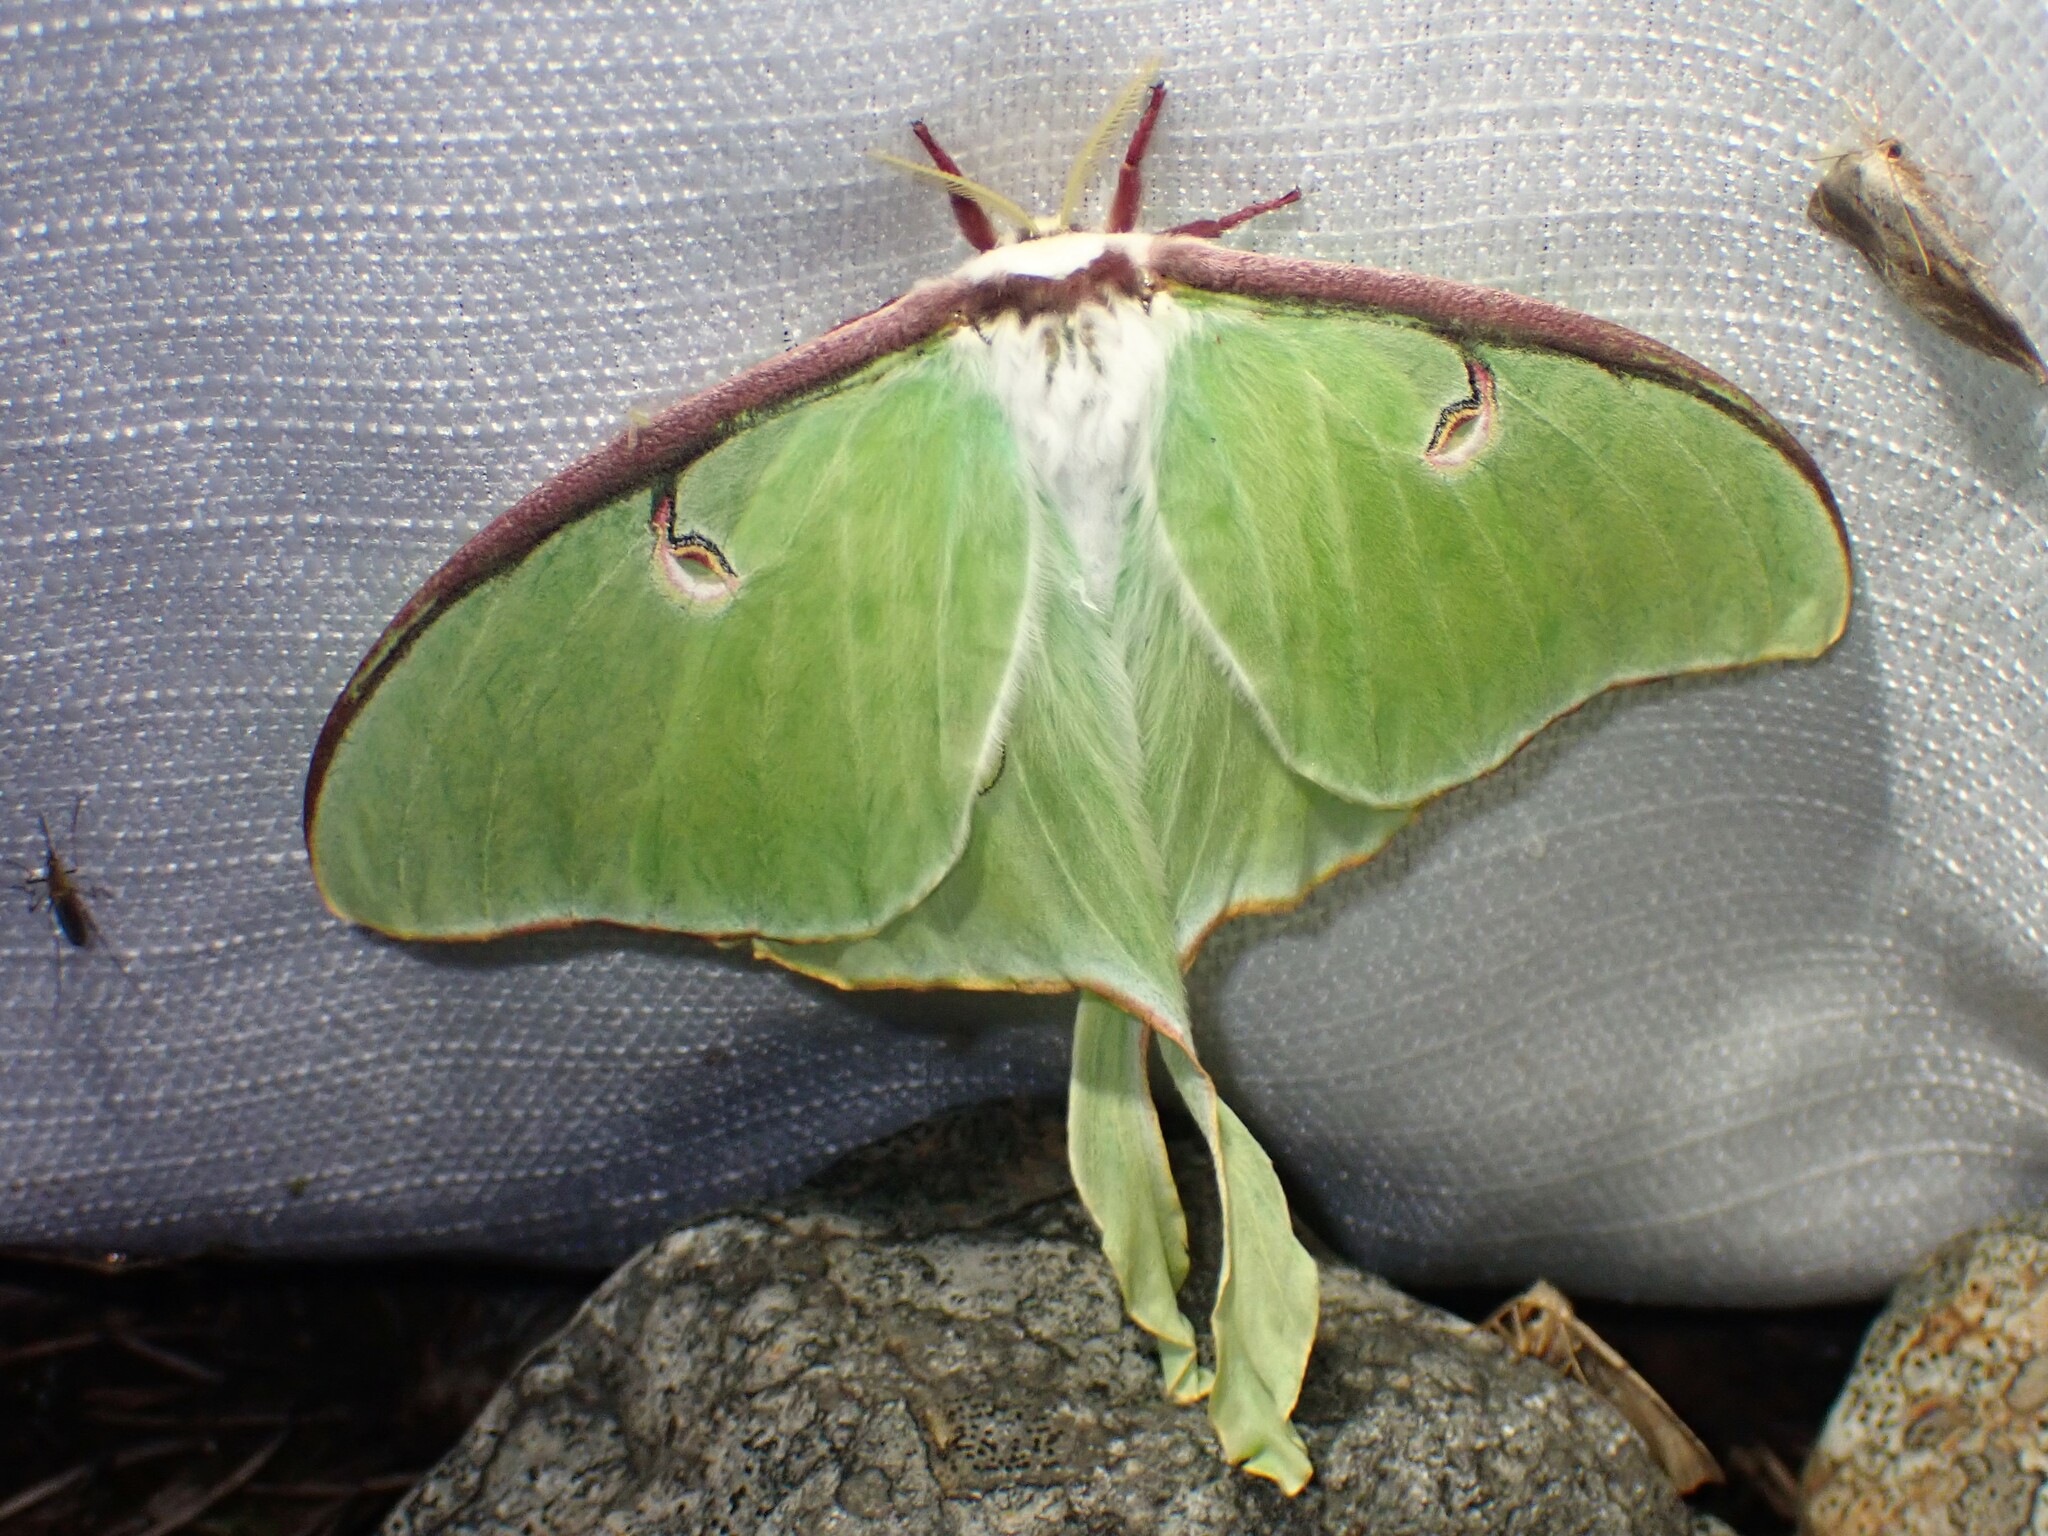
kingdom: Animalia
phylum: Arthropoda
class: Insecta
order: Lepidoptera
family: Saturniidae
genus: Actias
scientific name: Actias luna
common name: Luna moth
